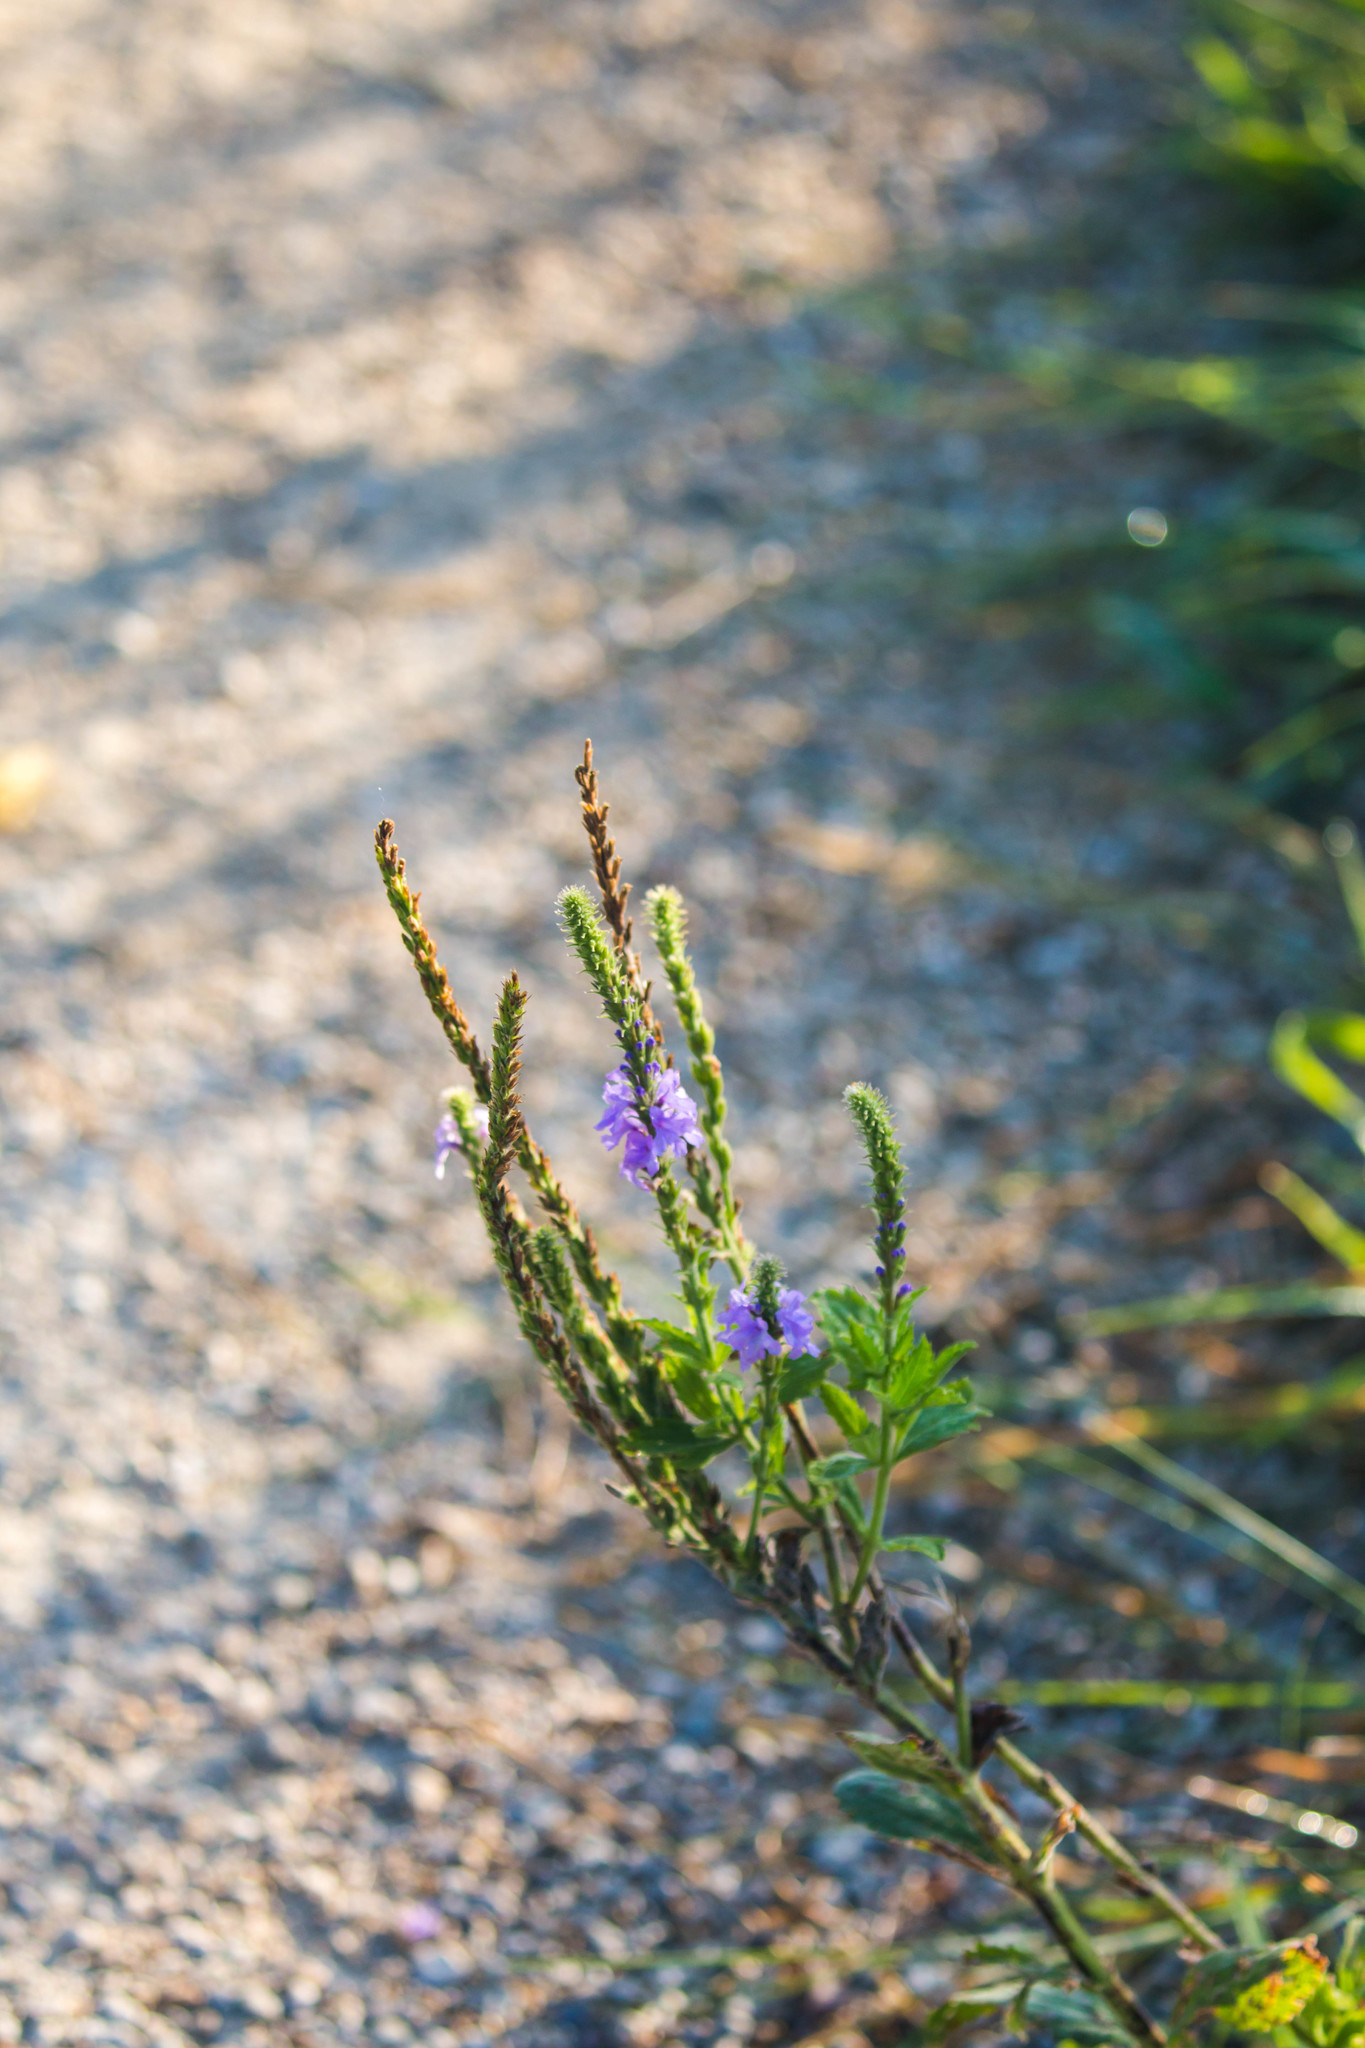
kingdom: Plantae
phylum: Tracheophyta
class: Magnoliopsida
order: Lamiales
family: Verbenaceae
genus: Verbena
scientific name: Verbena stricta
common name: Hoary vervain
